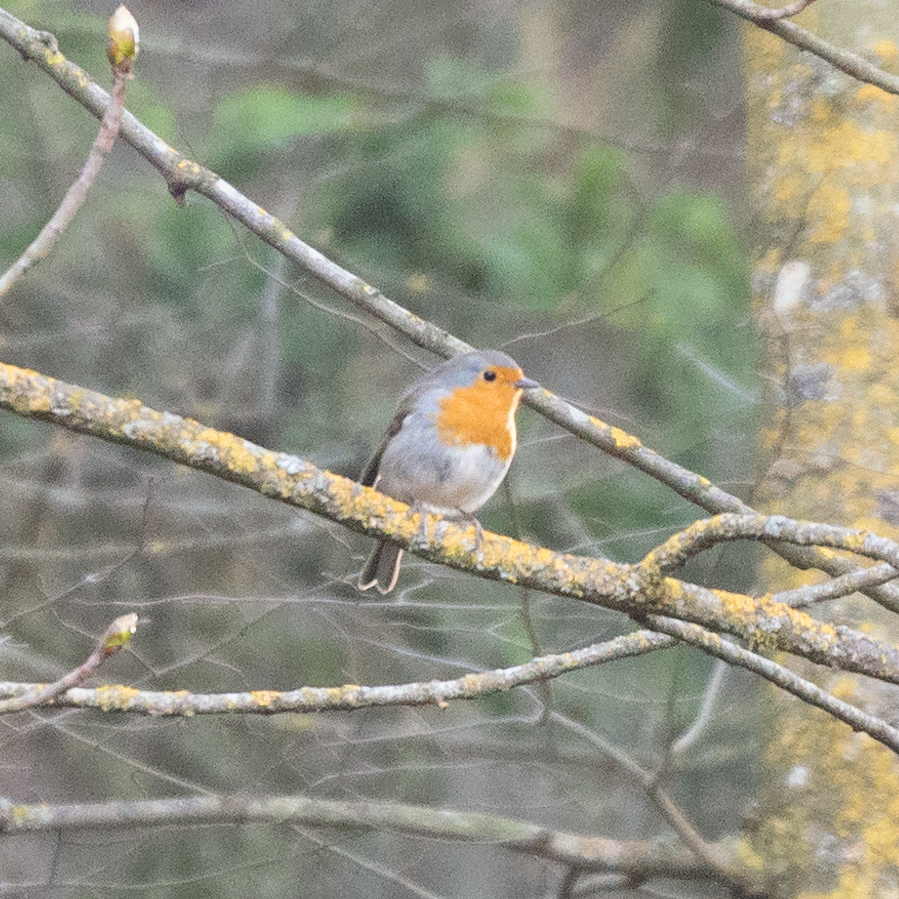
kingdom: Animalia
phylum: Chordata
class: Aves
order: Passeriformes
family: Muscicapidae
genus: Erithacus
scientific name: Erithacus rubecula
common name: European robin
